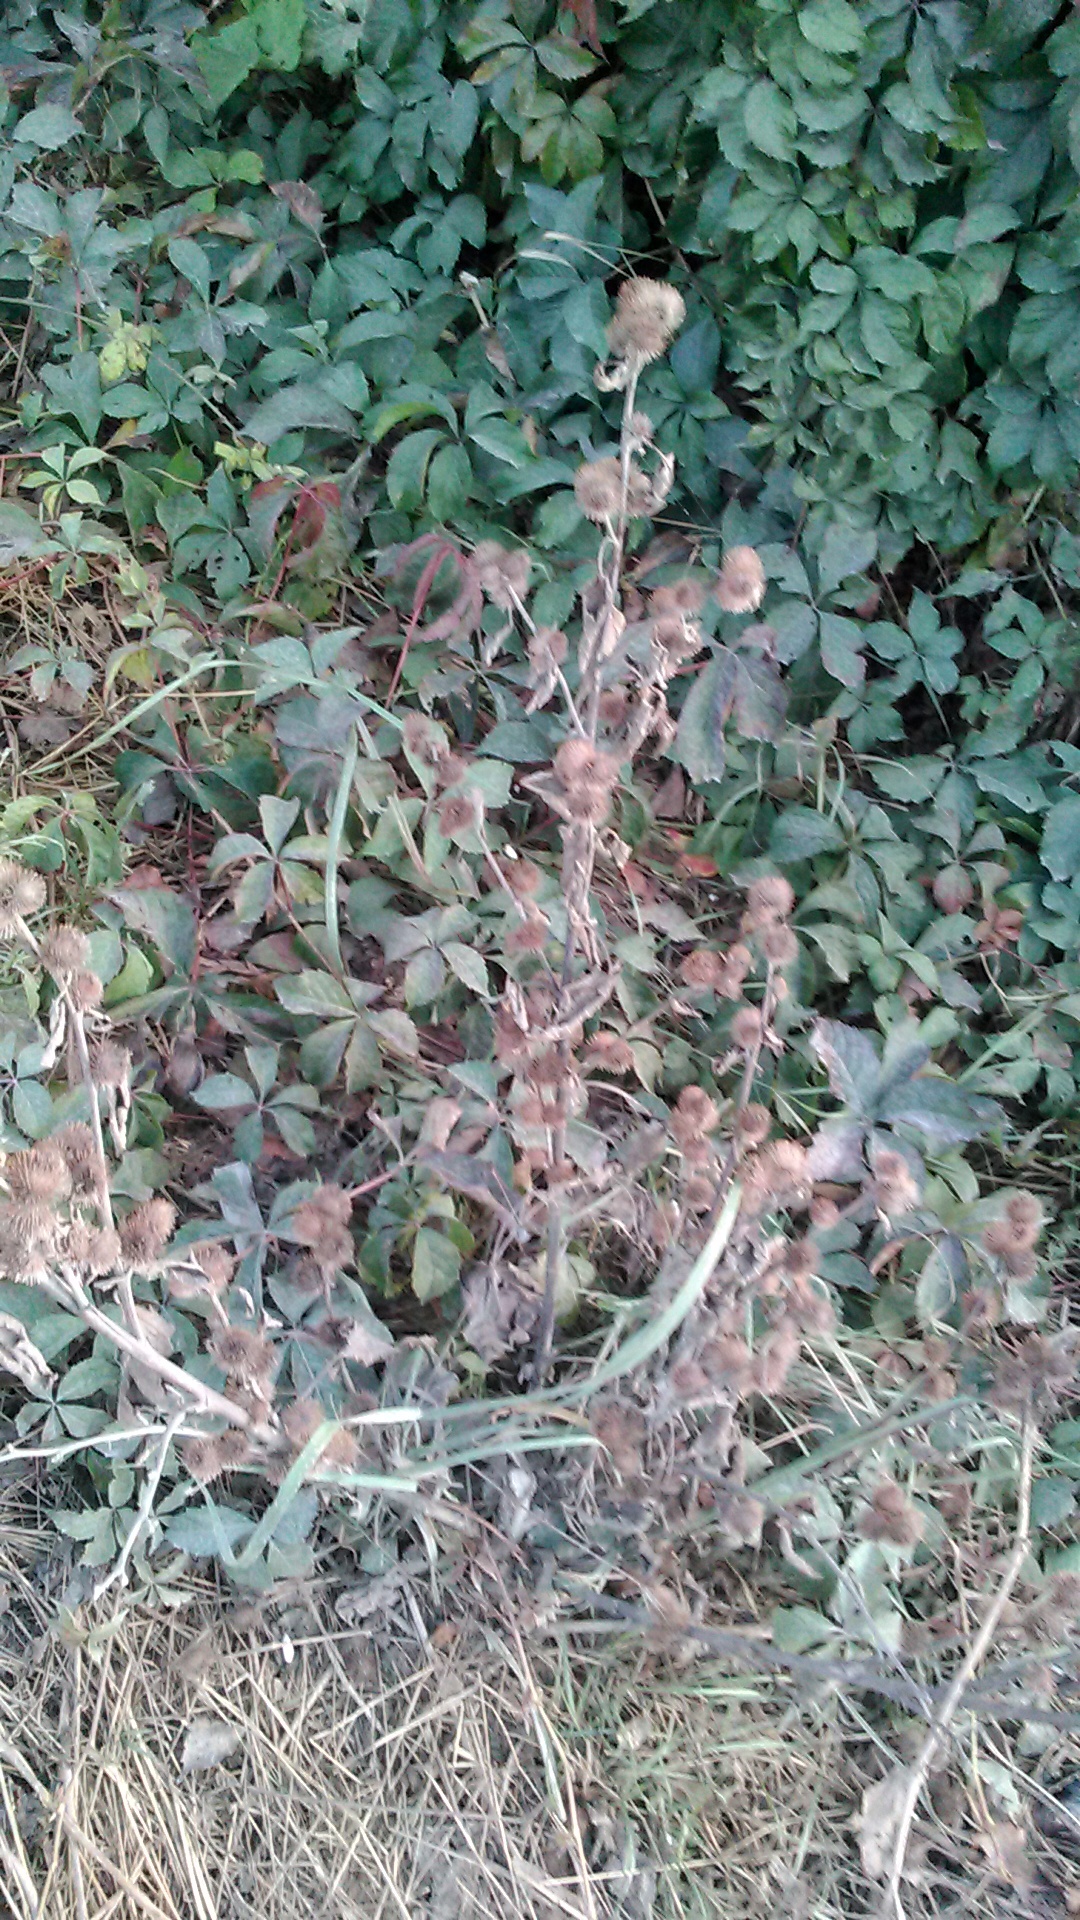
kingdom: Plantae
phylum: Tracheophyta
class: Magnoliopsida
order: Asterales
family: Asteraceae
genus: Arctium
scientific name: Arctium minus
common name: Lesser burdock
